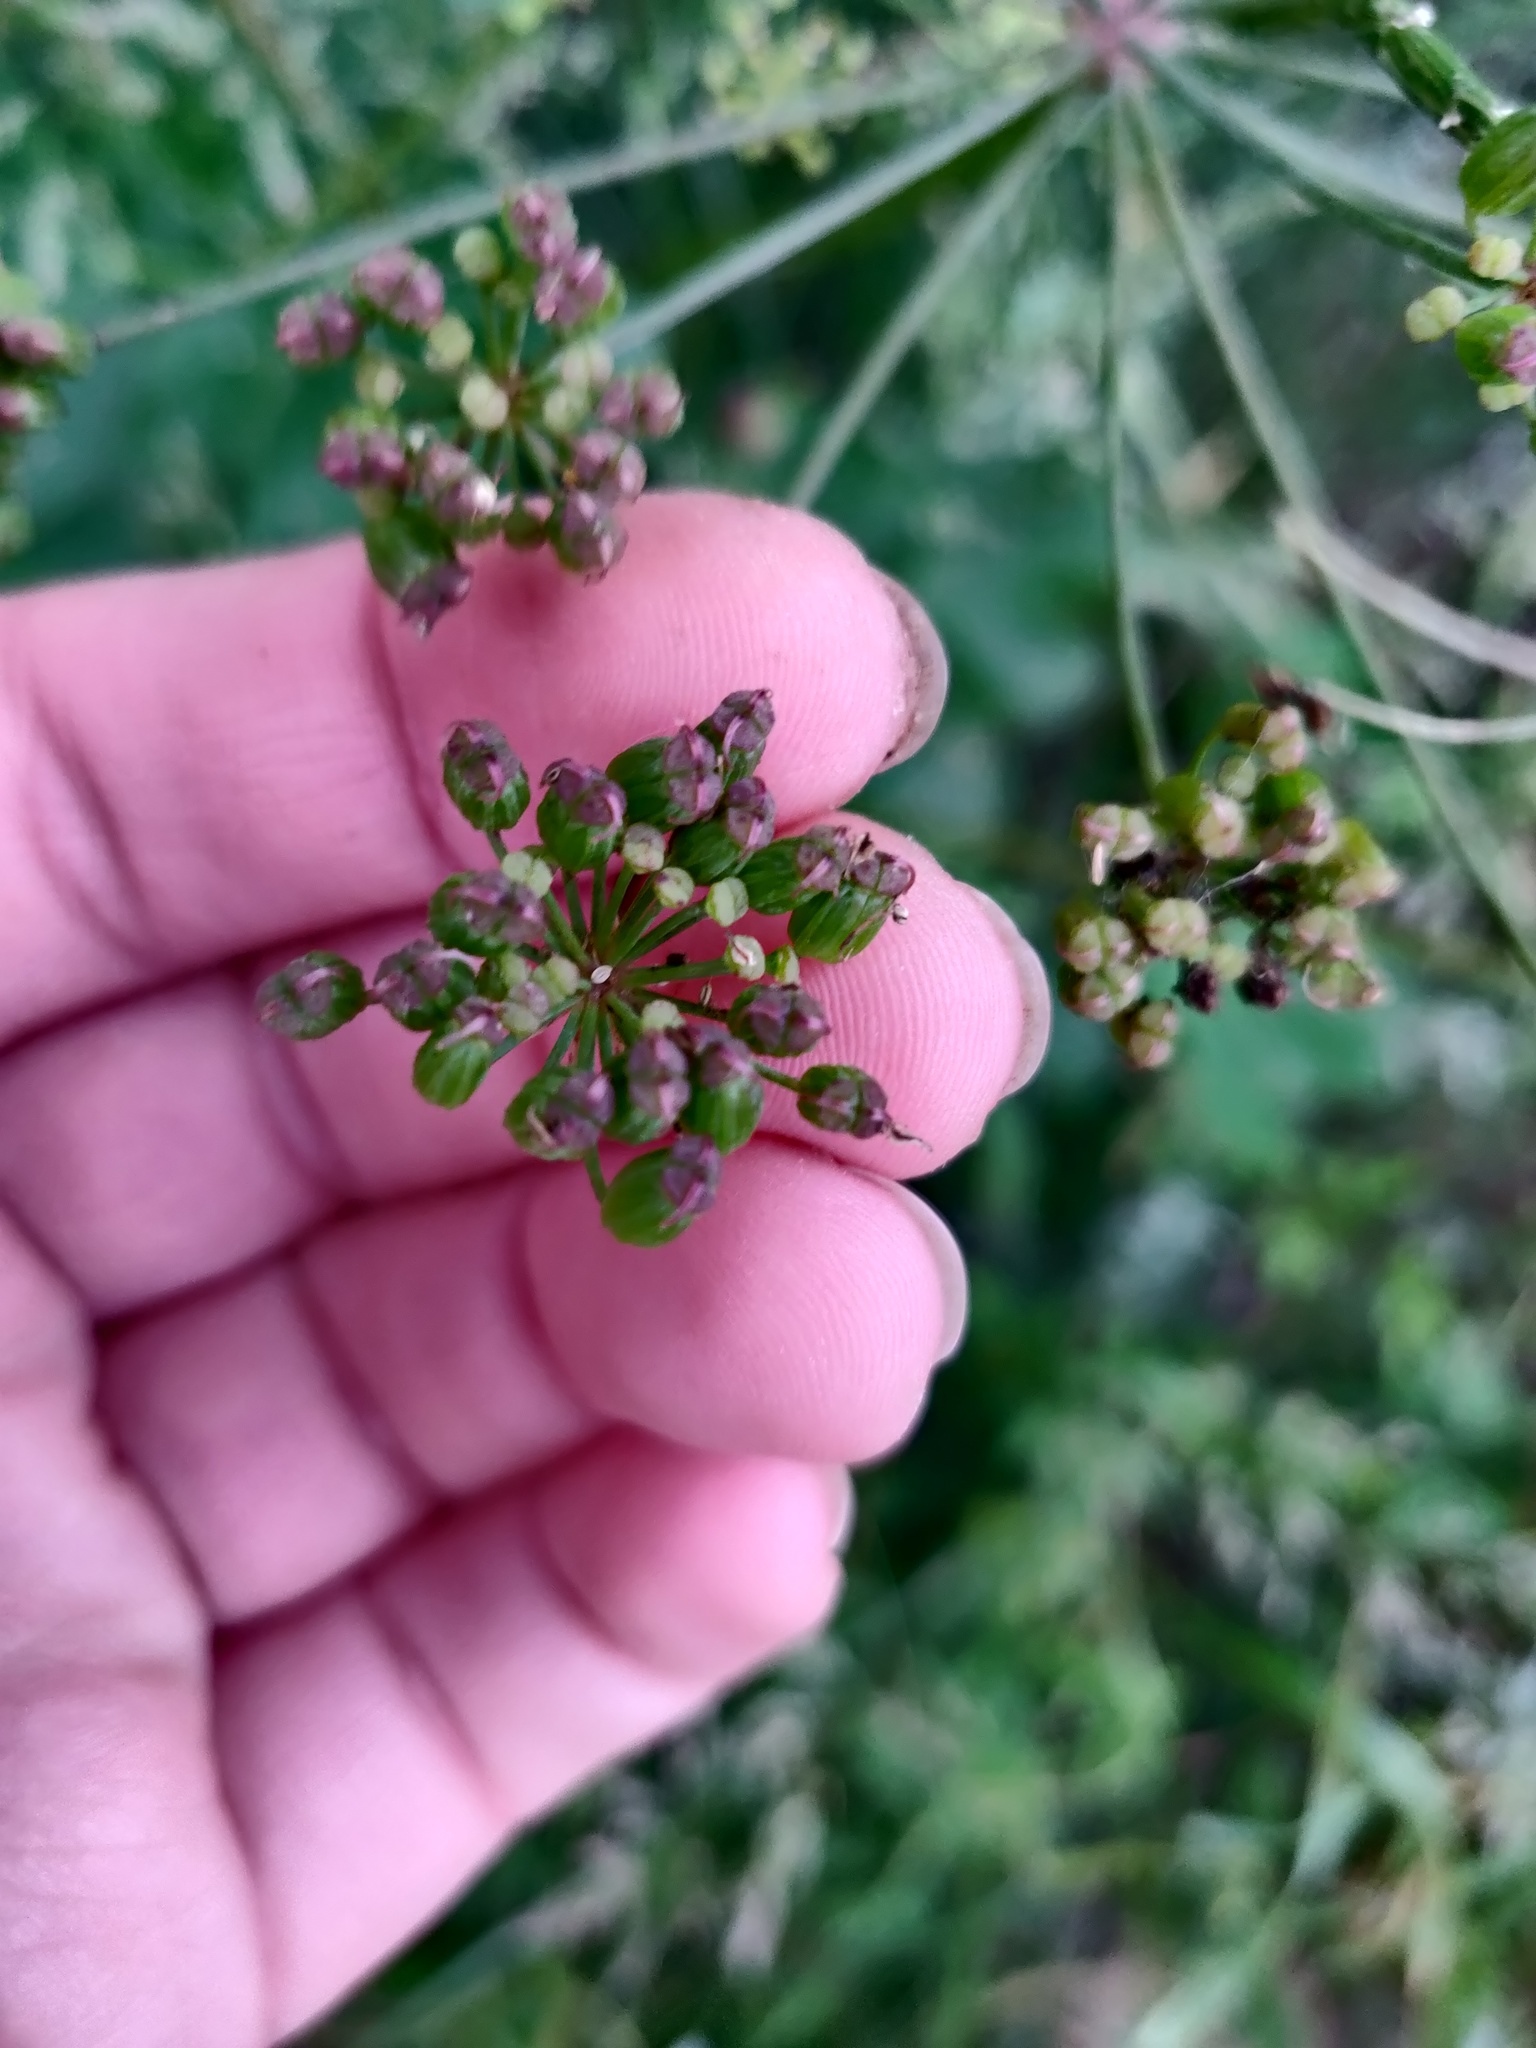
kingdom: Plantae
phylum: Tracheophyta
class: Magnoliopsida
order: Apiales
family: Apiaceae
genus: Laser
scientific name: Laser trilobum
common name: Laser
